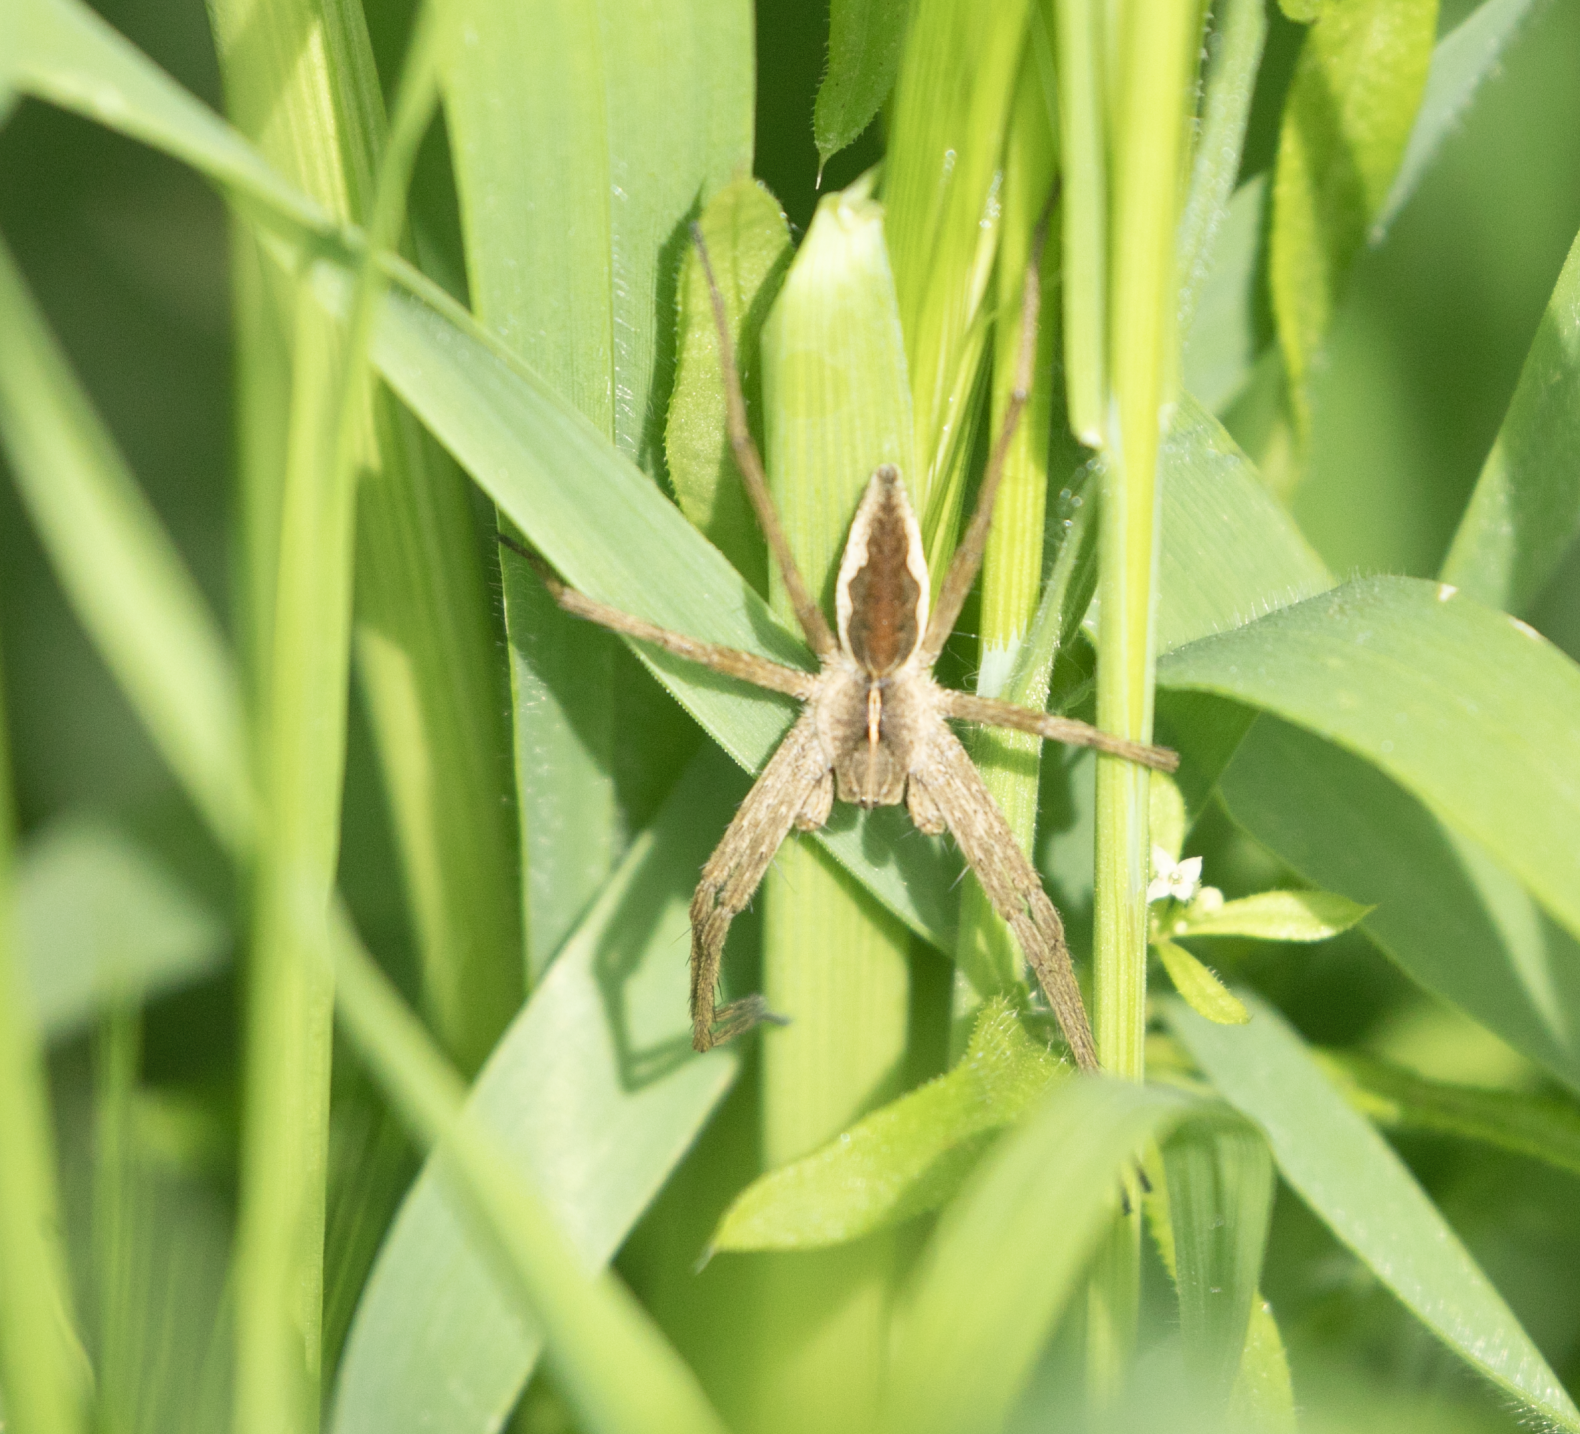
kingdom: Animalia
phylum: Arthropoda
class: Arachnida
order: Araneae
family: Pisauridae
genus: Pisaura
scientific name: Pisaura mirabilis
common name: Tent spider
